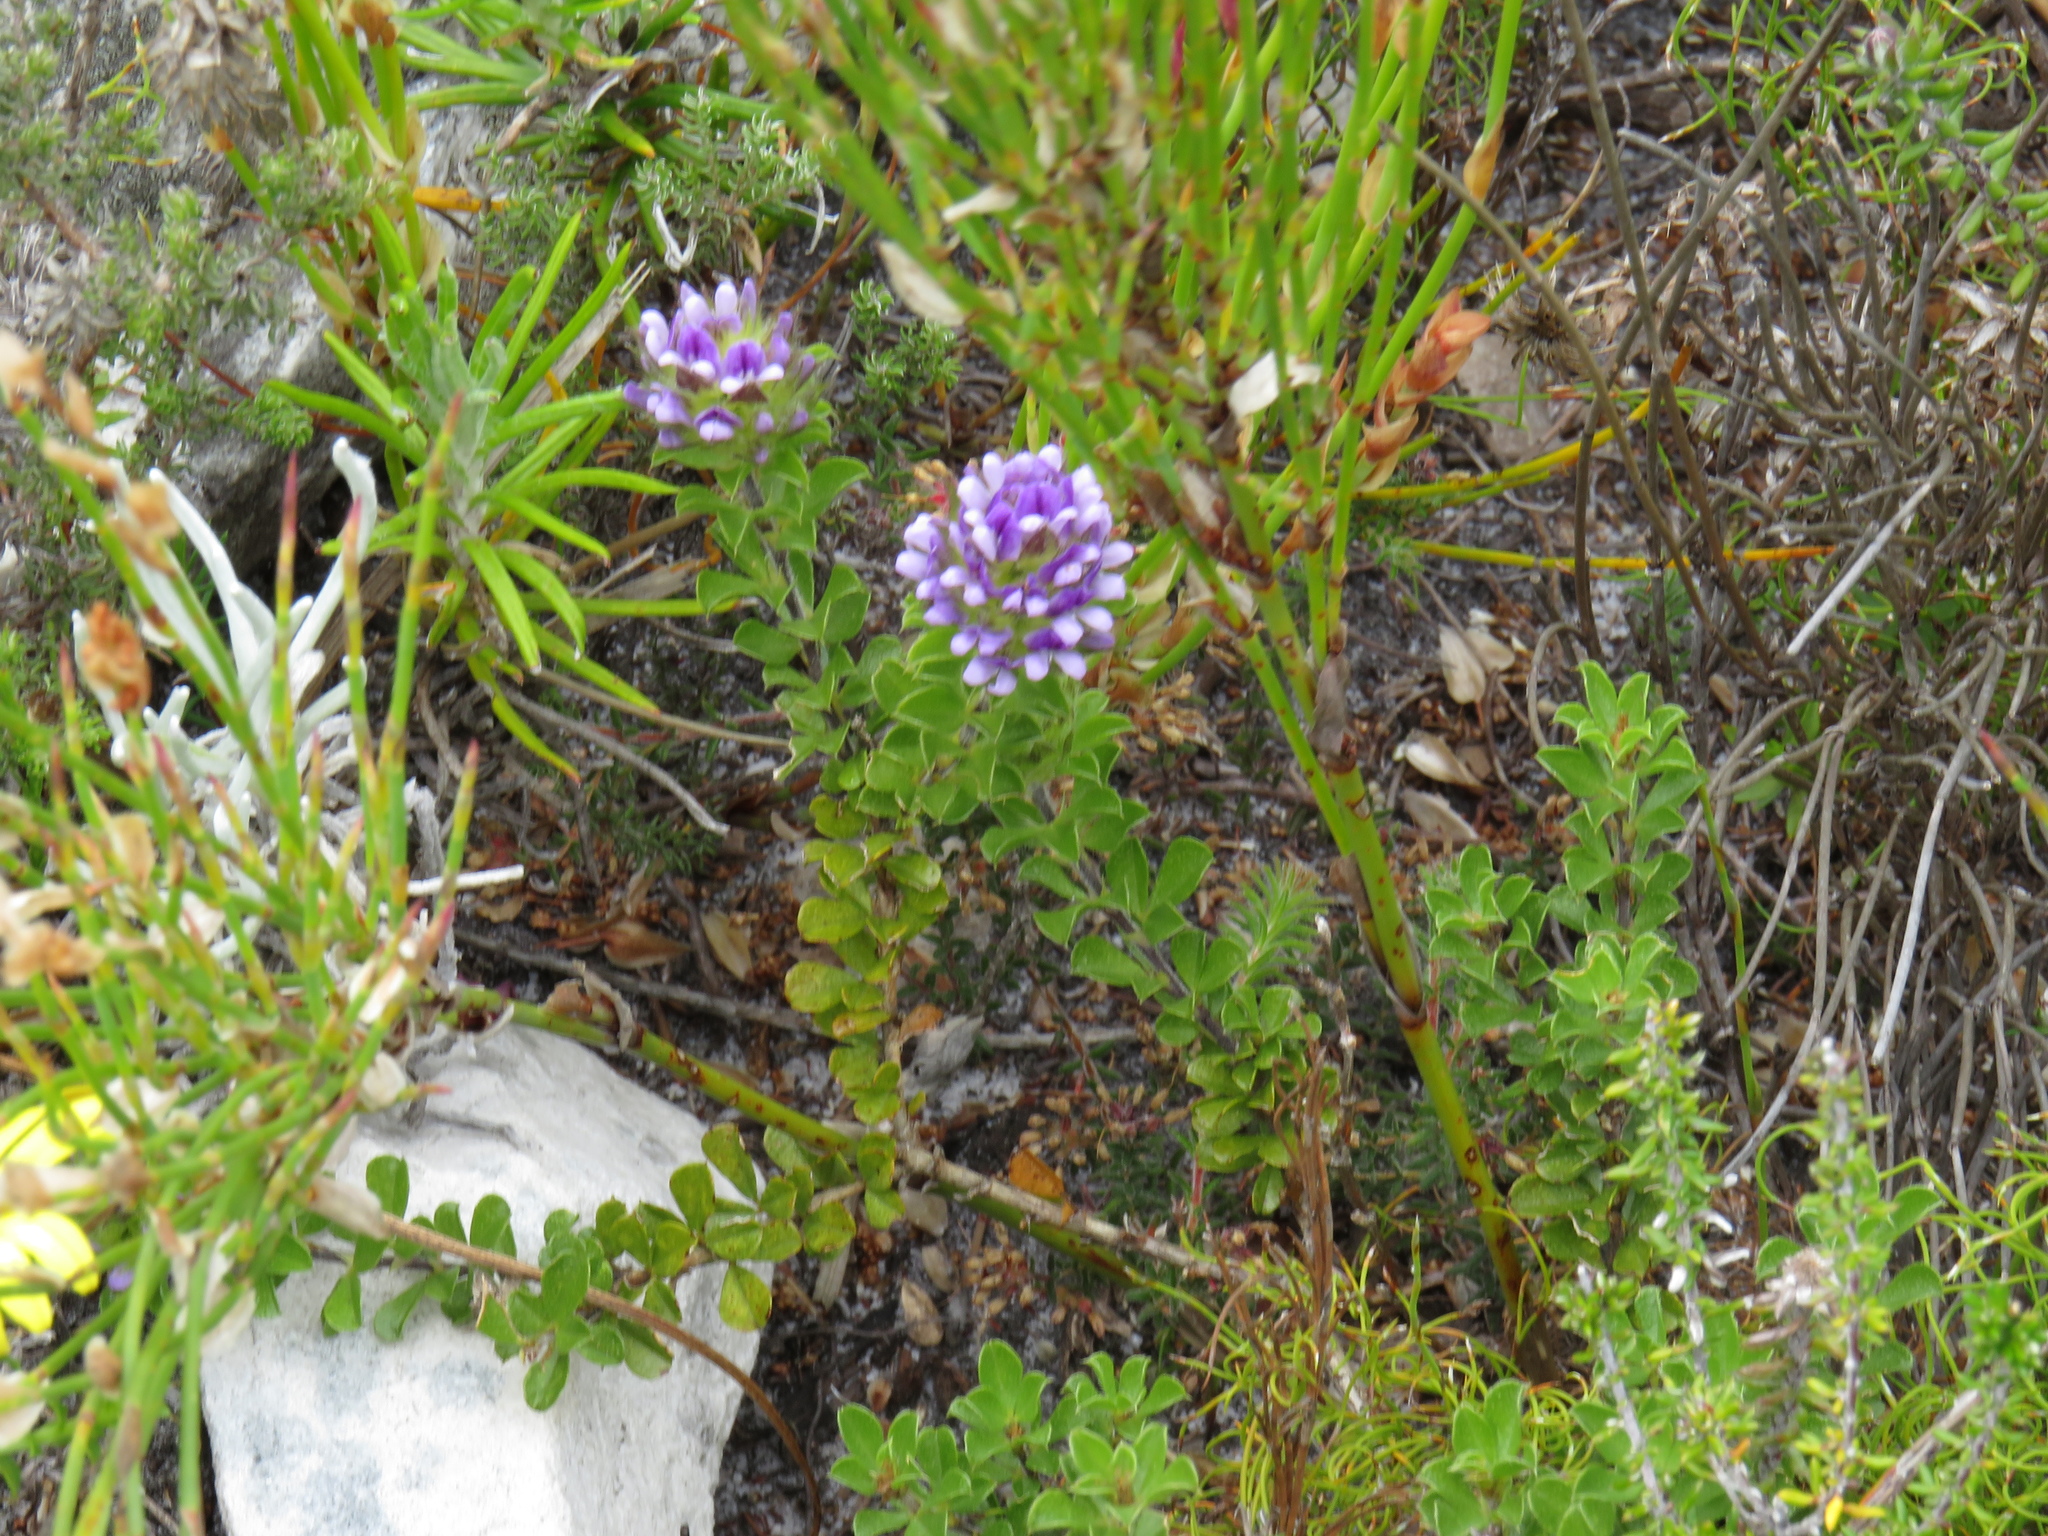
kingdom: Plantae
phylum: Tracheophyta
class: Magnoliopsida
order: Fabales
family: Fabaceae
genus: Psoralea
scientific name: Psoralea fruticans
